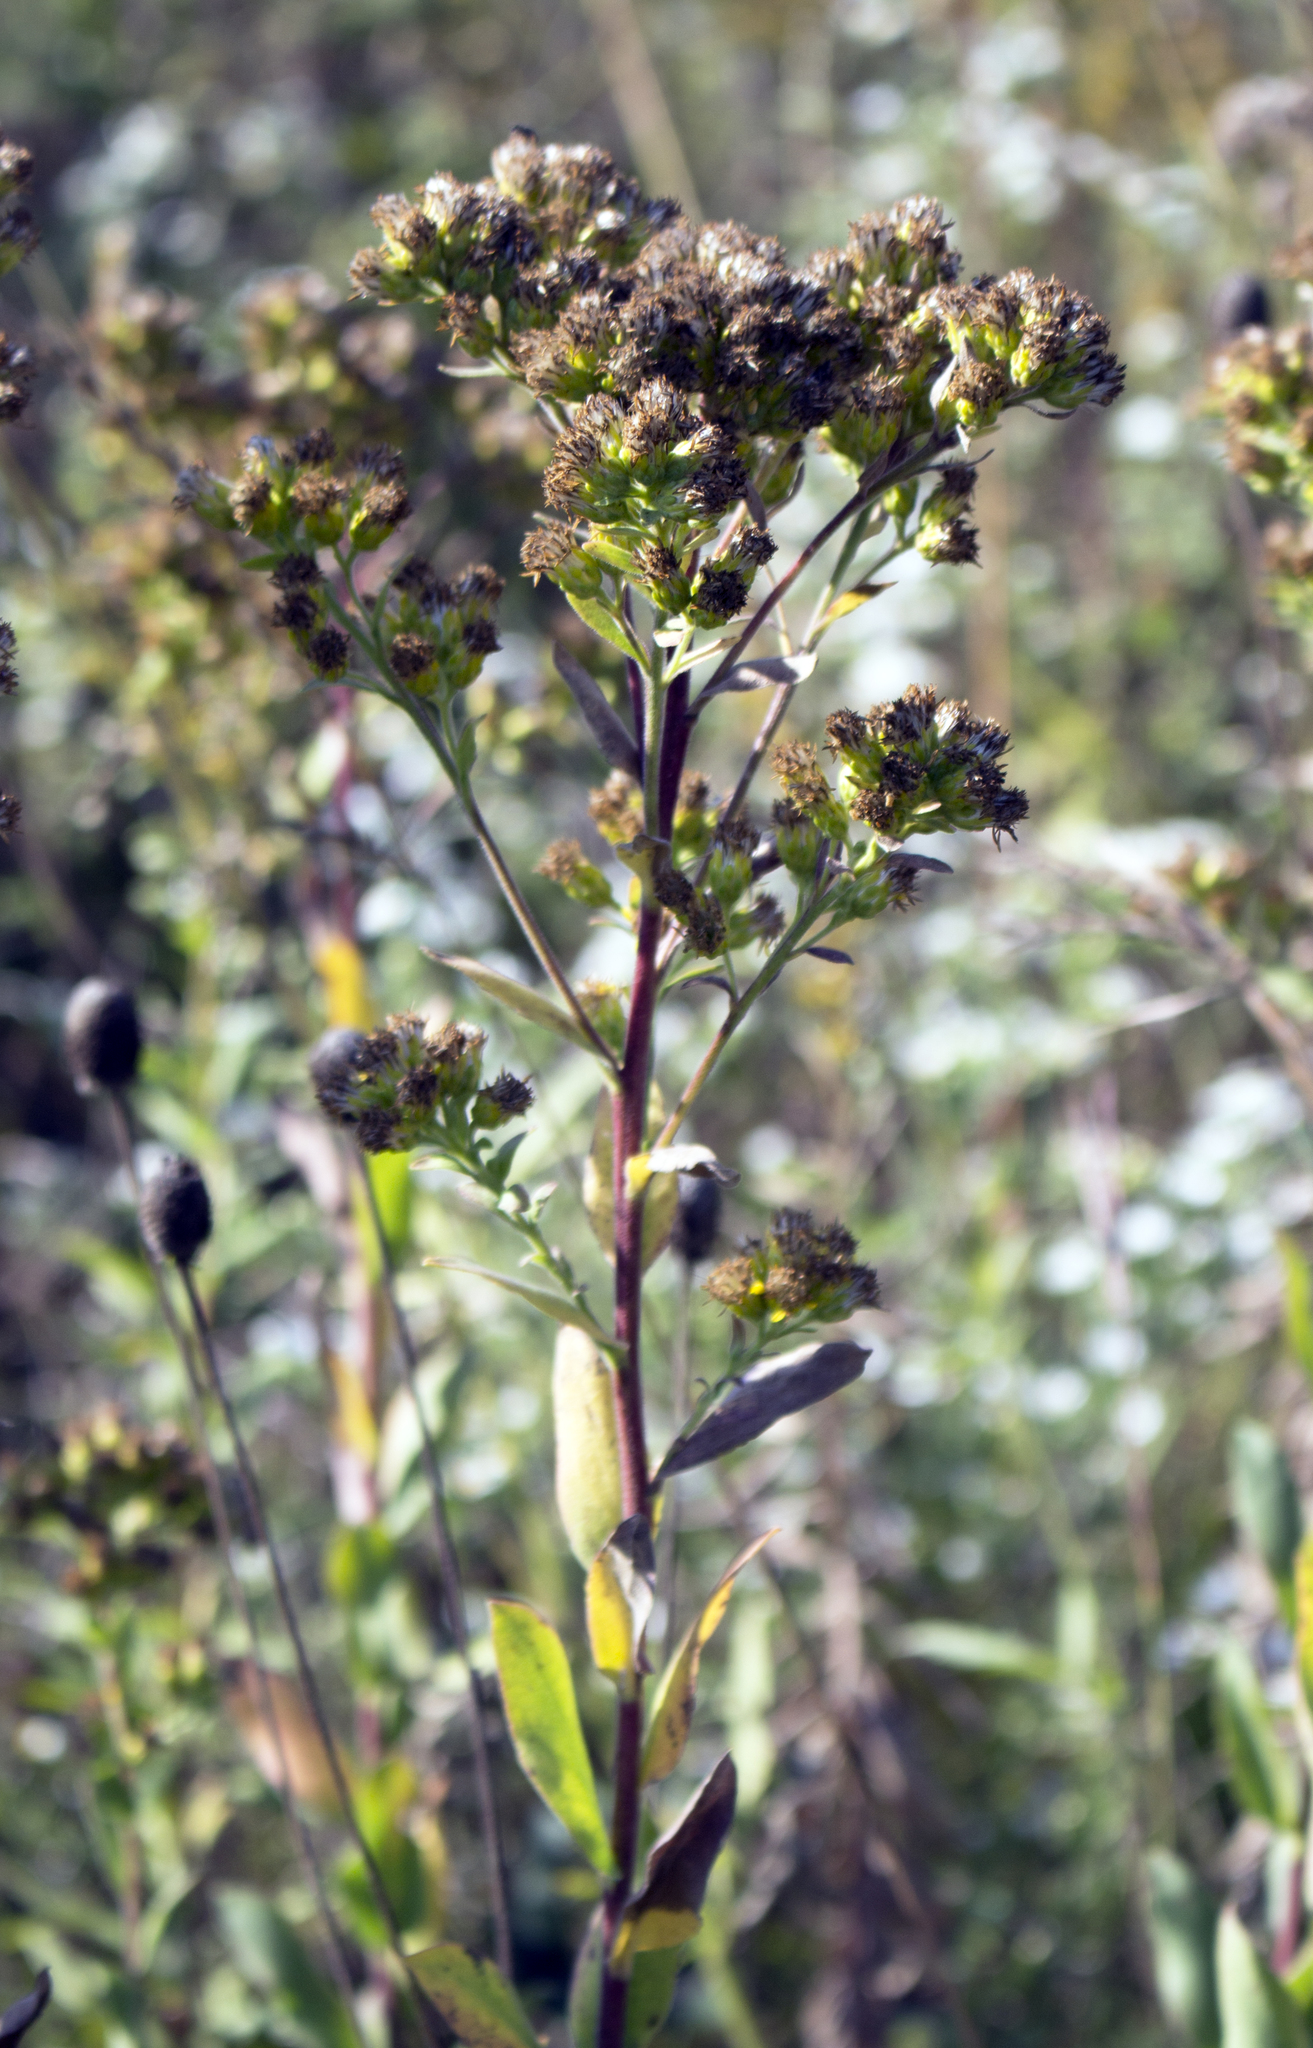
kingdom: Plantae
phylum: Tracheophyta
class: Magnoliopsida
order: Asterales
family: Asteraceae
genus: Solidago
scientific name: Solidago rigida
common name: Rigid goldenrod
